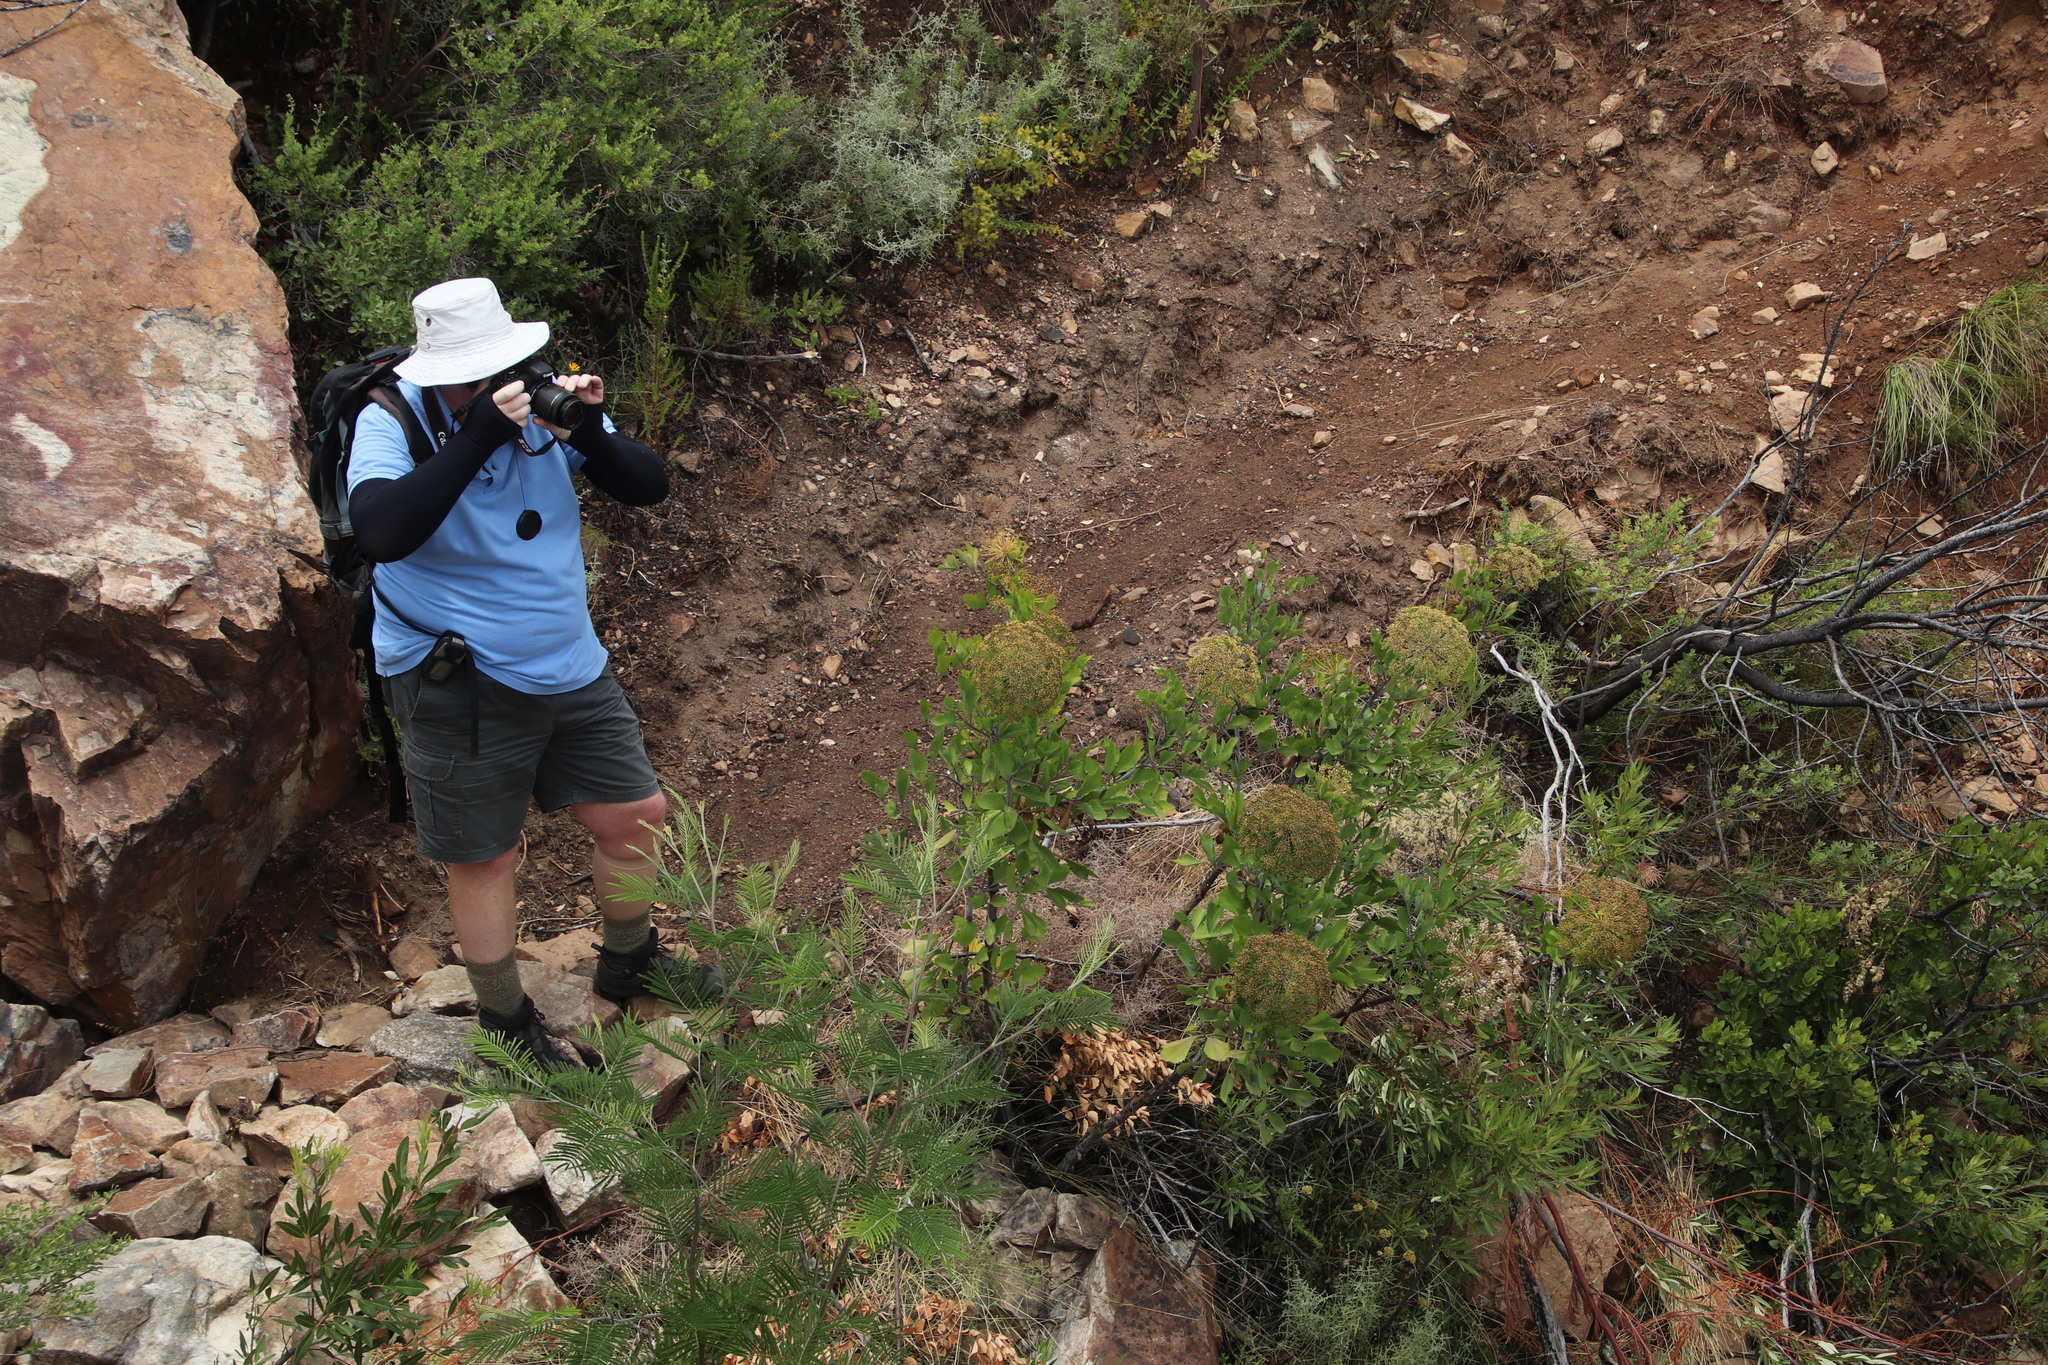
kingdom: Plantae
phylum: Tracheophyta
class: Magnoliopsida
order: Apiales
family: Apiaceae
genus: Notobubon
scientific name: Notobubon galbanum
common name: Blisterbush
